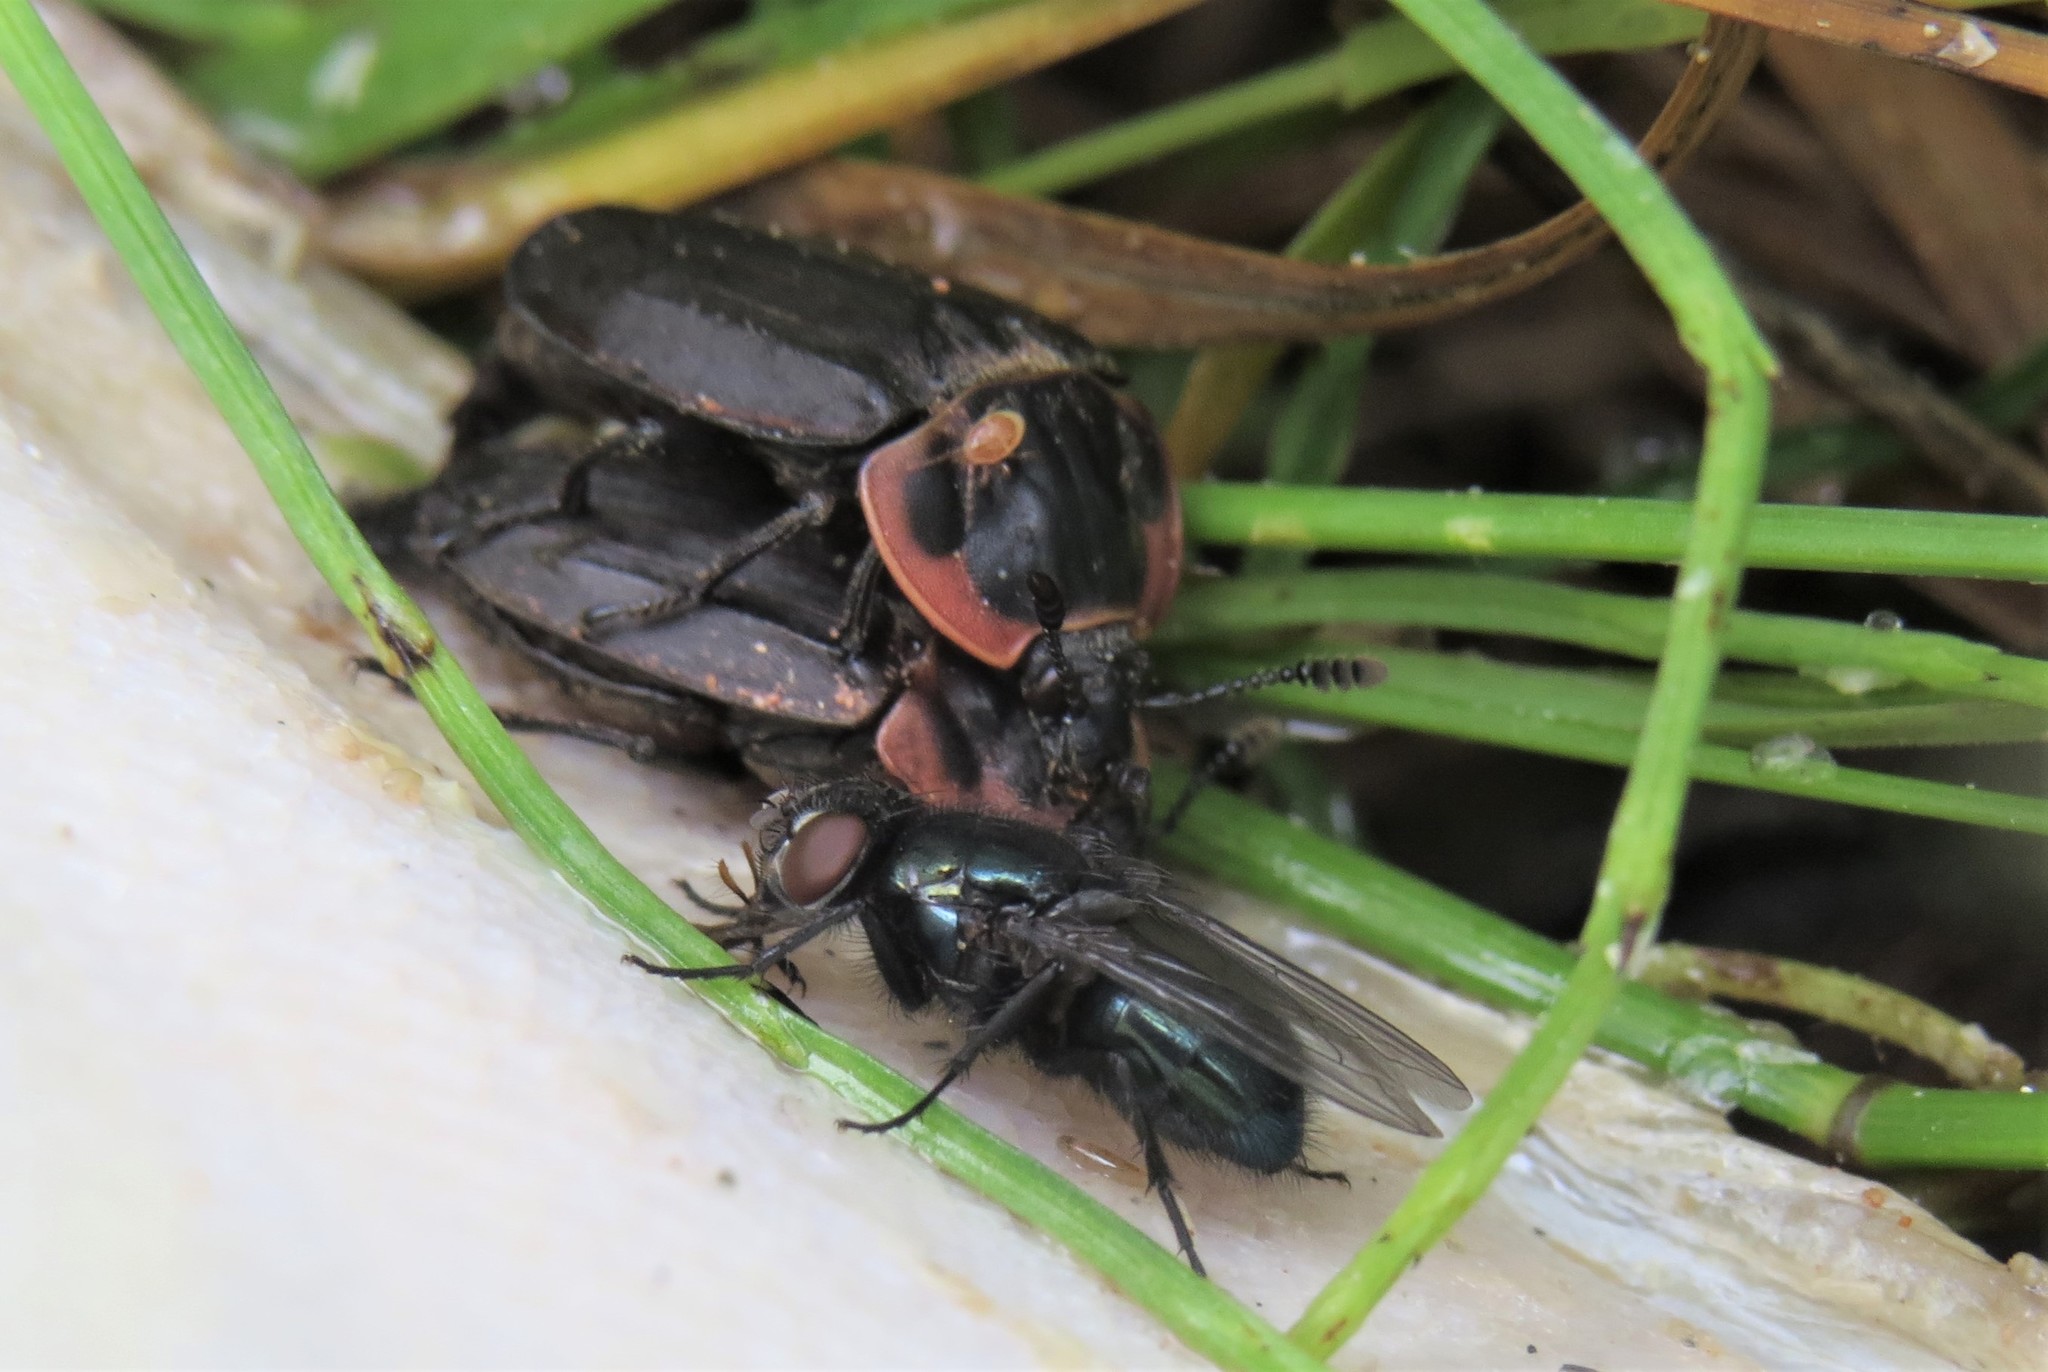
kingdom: Animalia
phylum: Arthropoda
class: Insecta
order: Coleoptera
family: Staphylinidae
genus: Oiceoptoma
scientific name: Oiceoptoma noveboracense
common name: Margined carrion beetle
